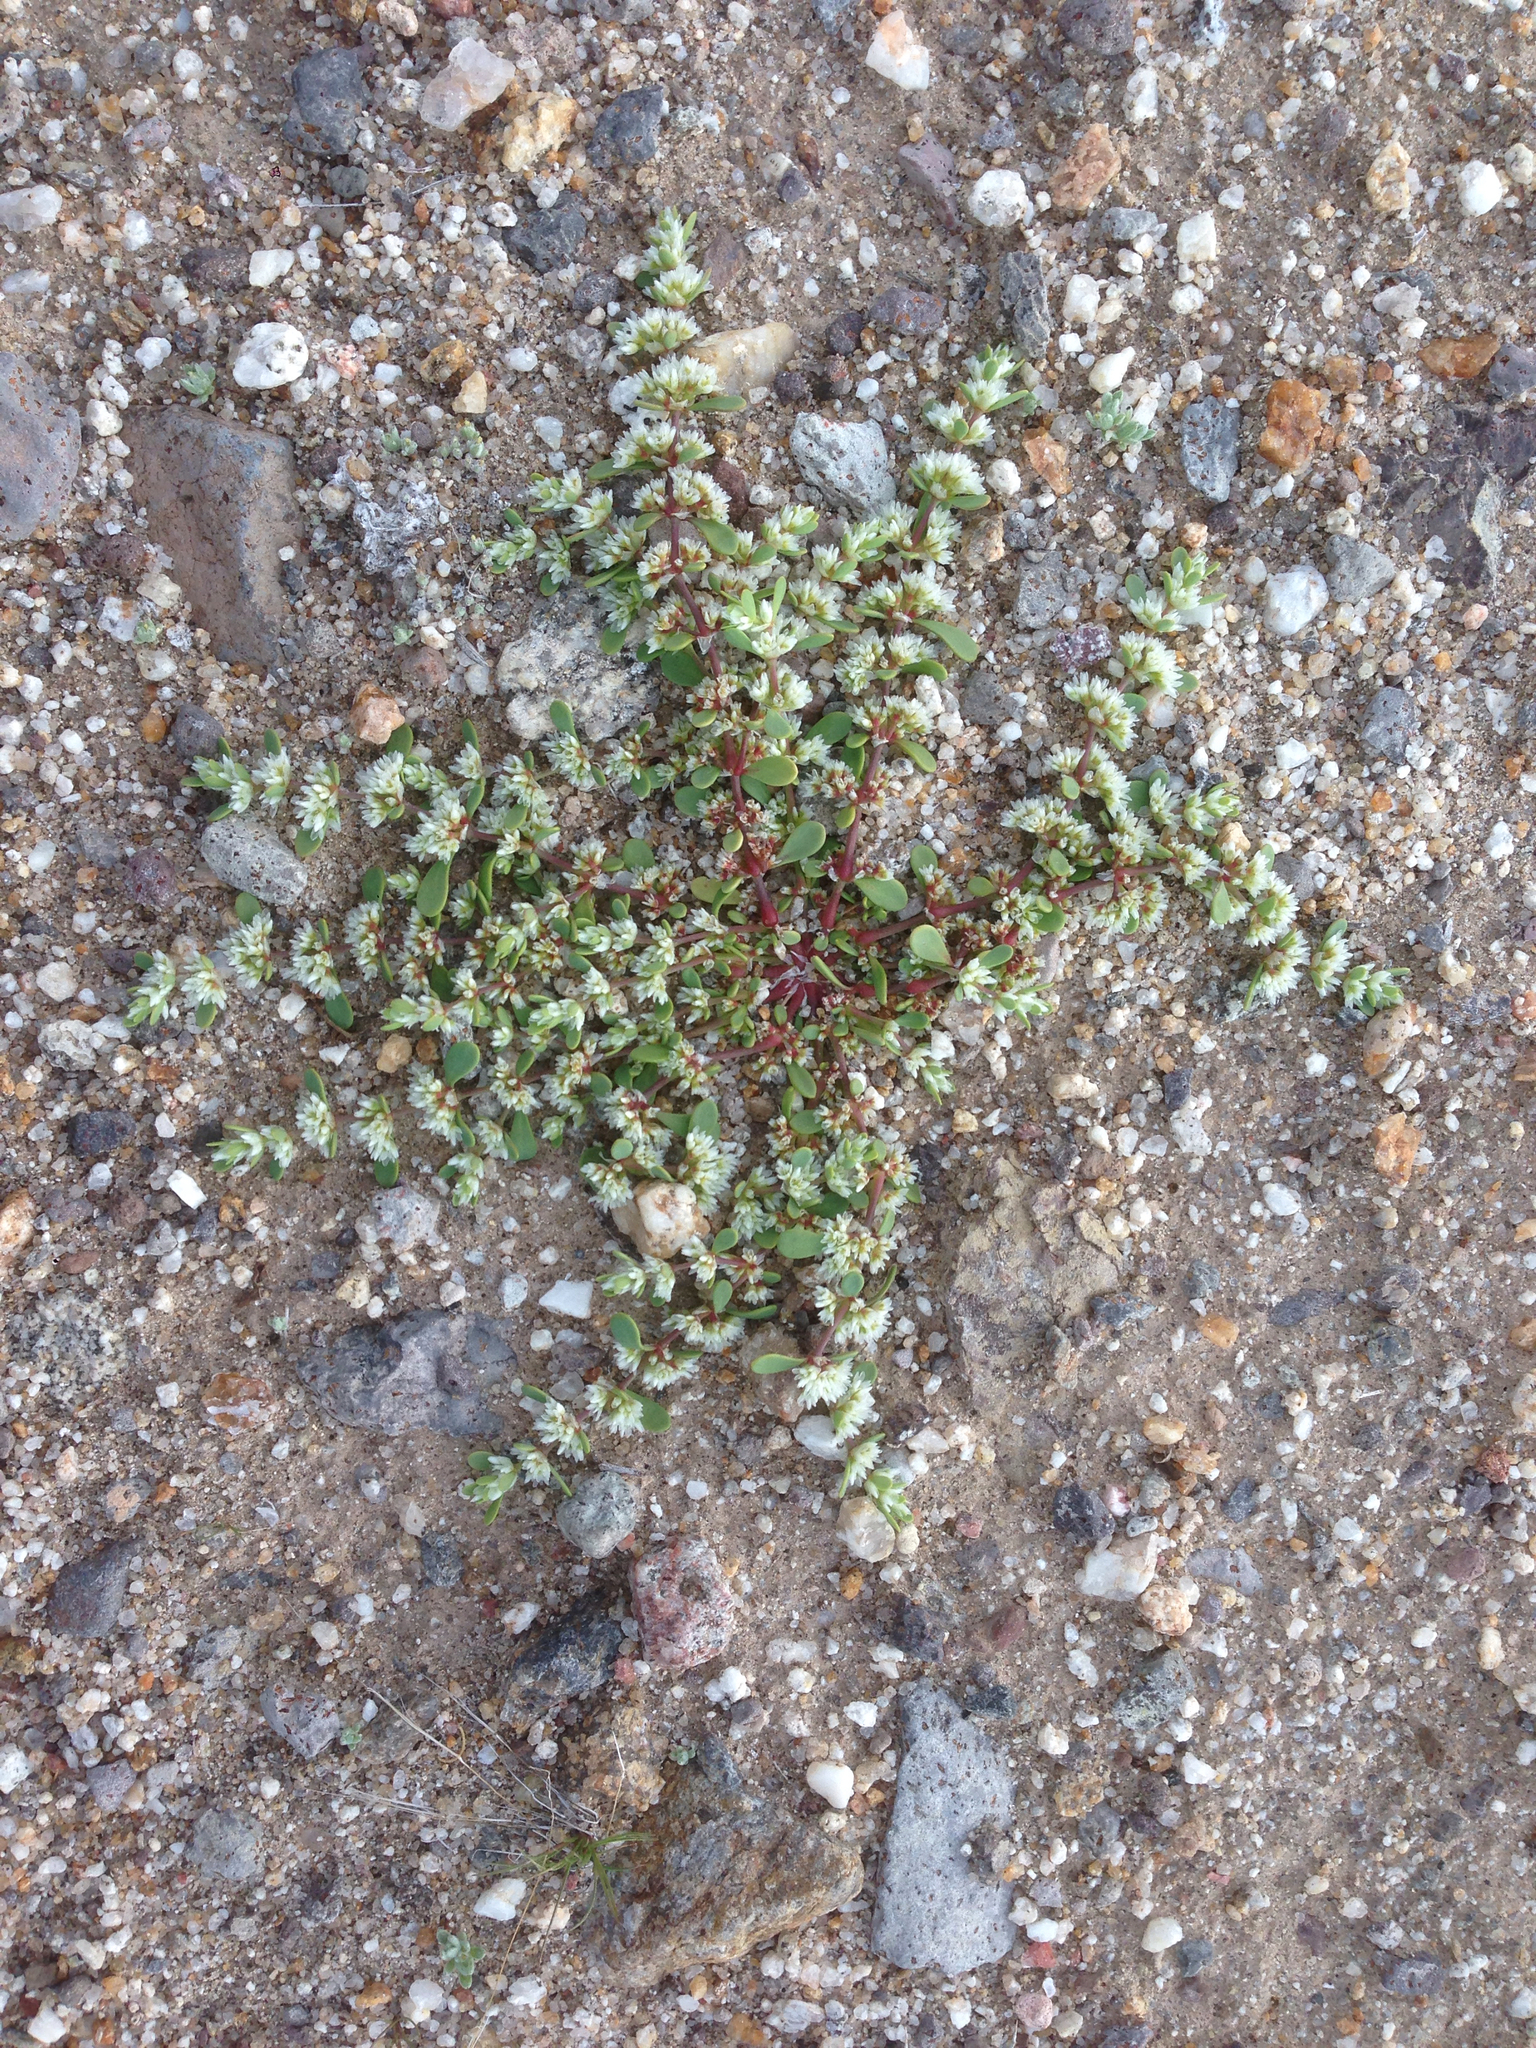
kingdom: Plantae
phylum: Tracheophyta
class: Magnoliopsida
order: Caryophyllales
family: Caryophyllaceae
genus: Achyronychia
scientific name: Achyronychia cooperi
